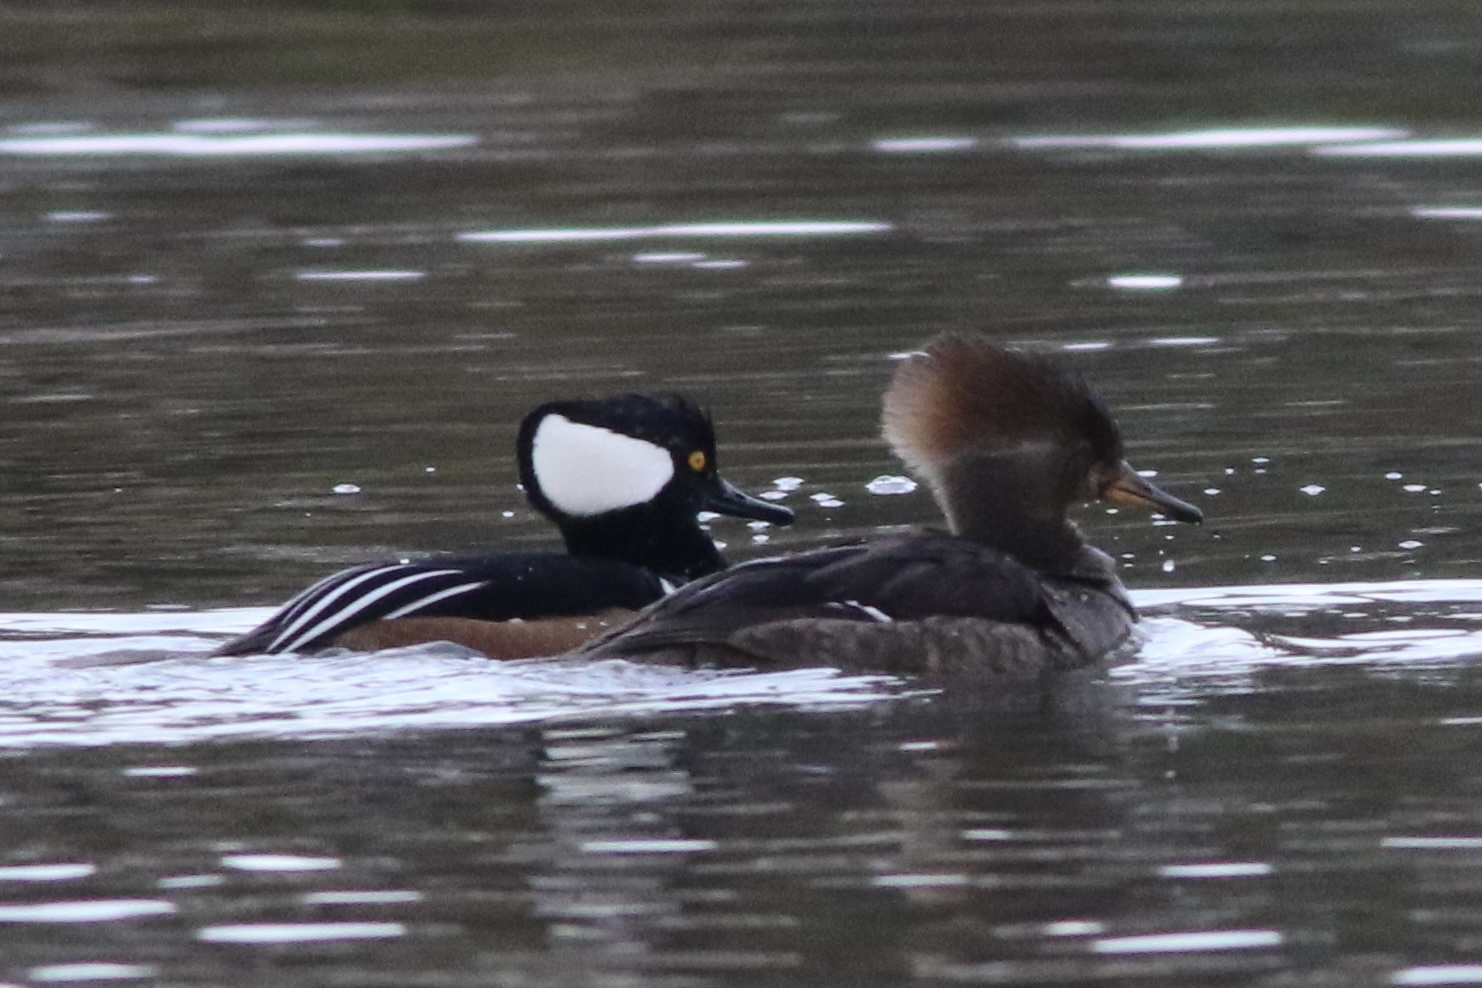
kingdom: Animalia
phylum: Chordata
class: Aves
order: Anseriformes
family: Anatidae
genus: Lophodytes
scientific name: Lophodytes cucullatus
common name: Hooded merganser
